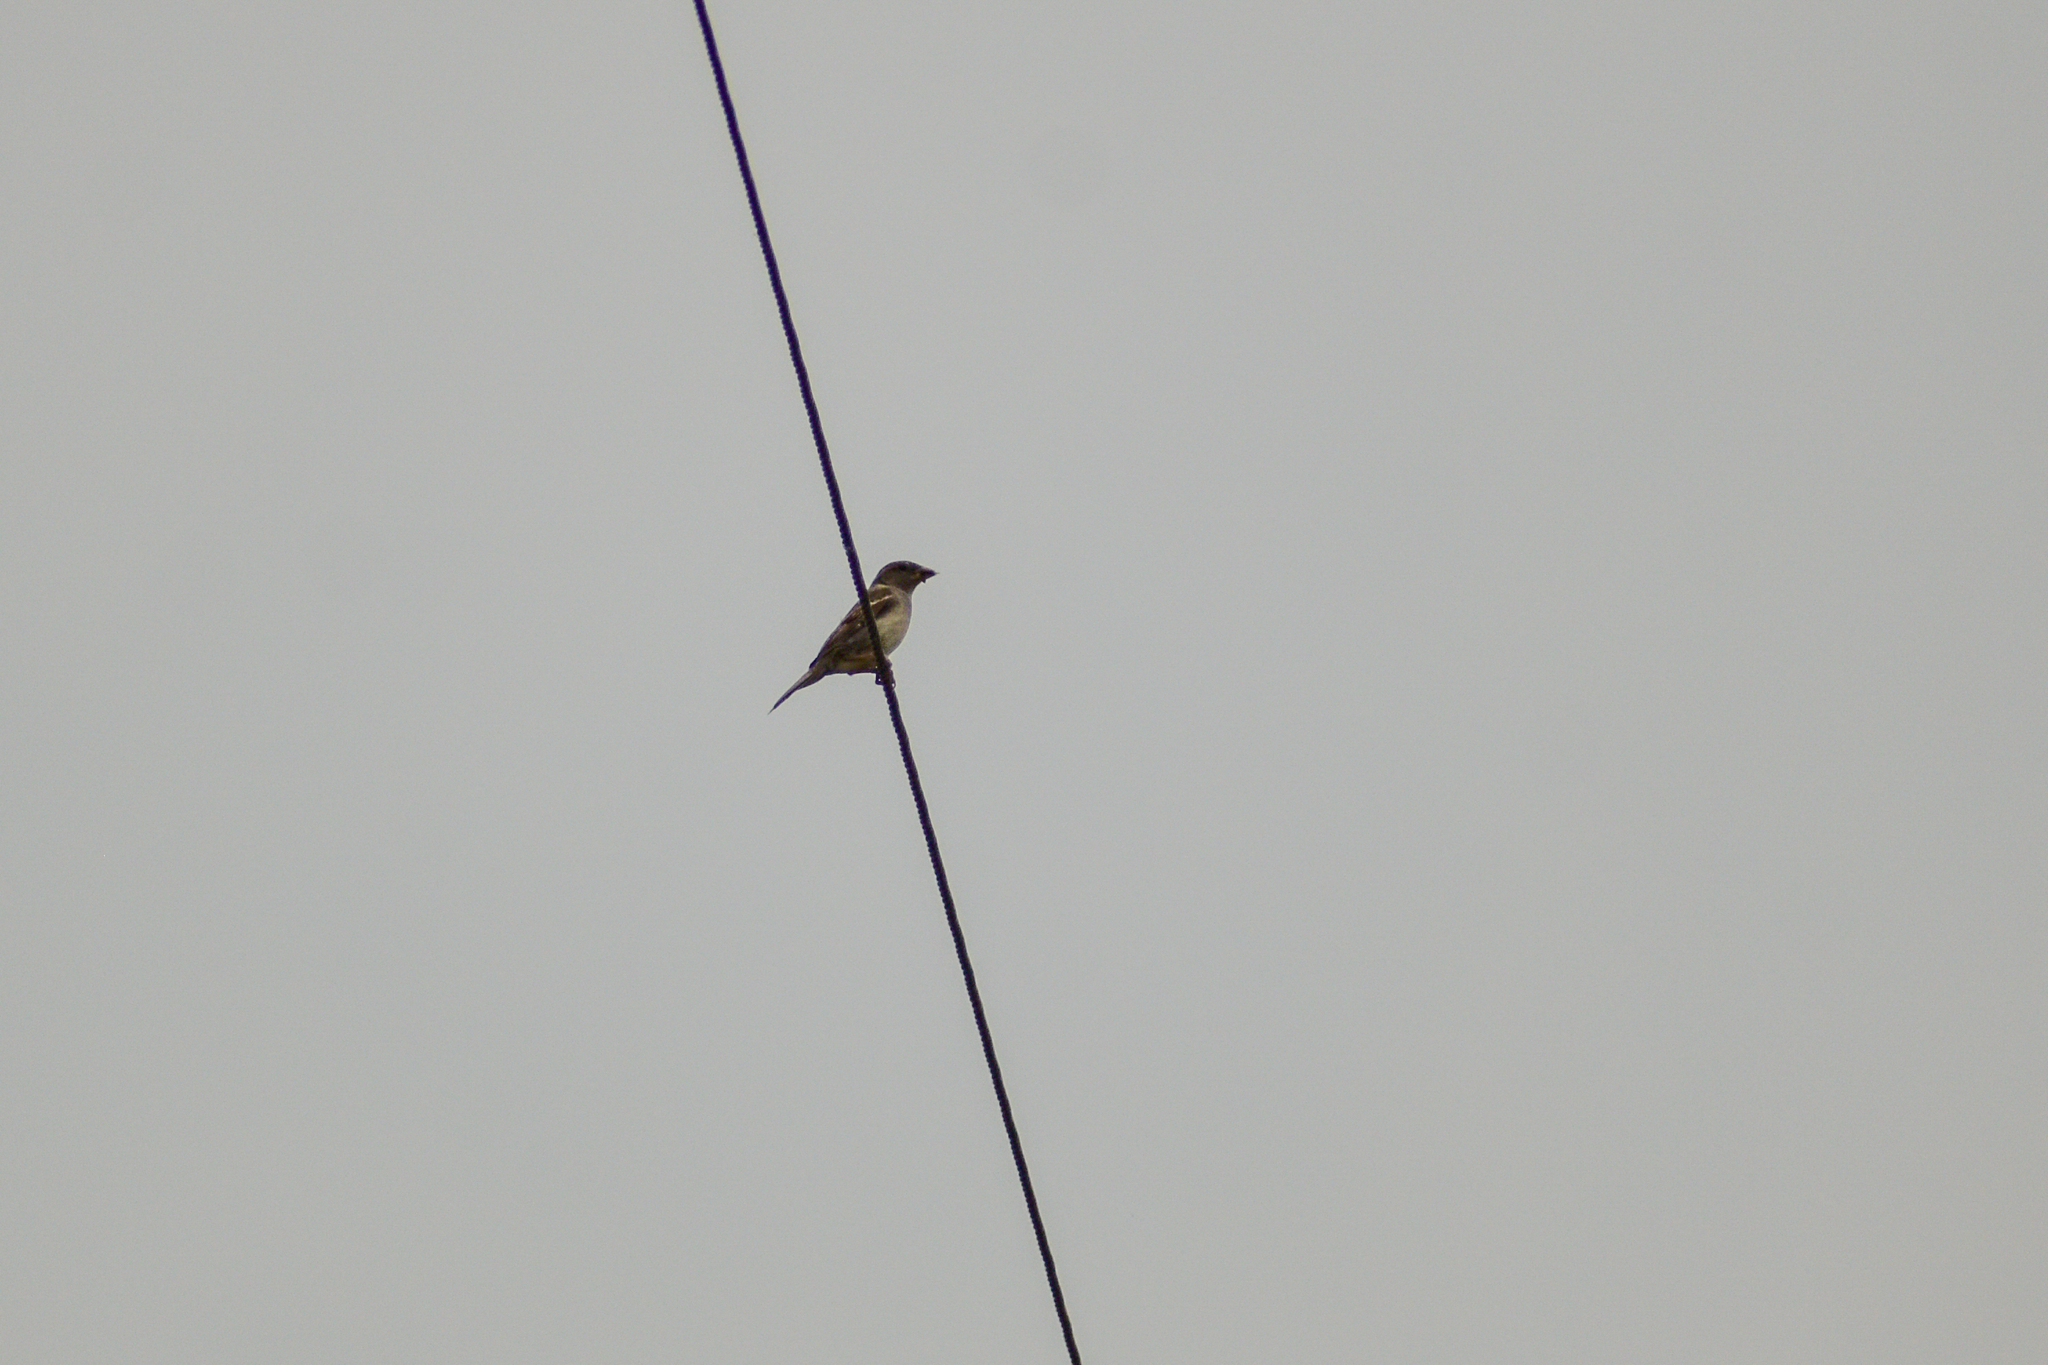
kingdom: Animalia
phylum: Chordata
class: Aves
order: Passeriformes
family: Passeridae
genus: Passer
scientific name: Passer domesticus
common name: House sparrow
